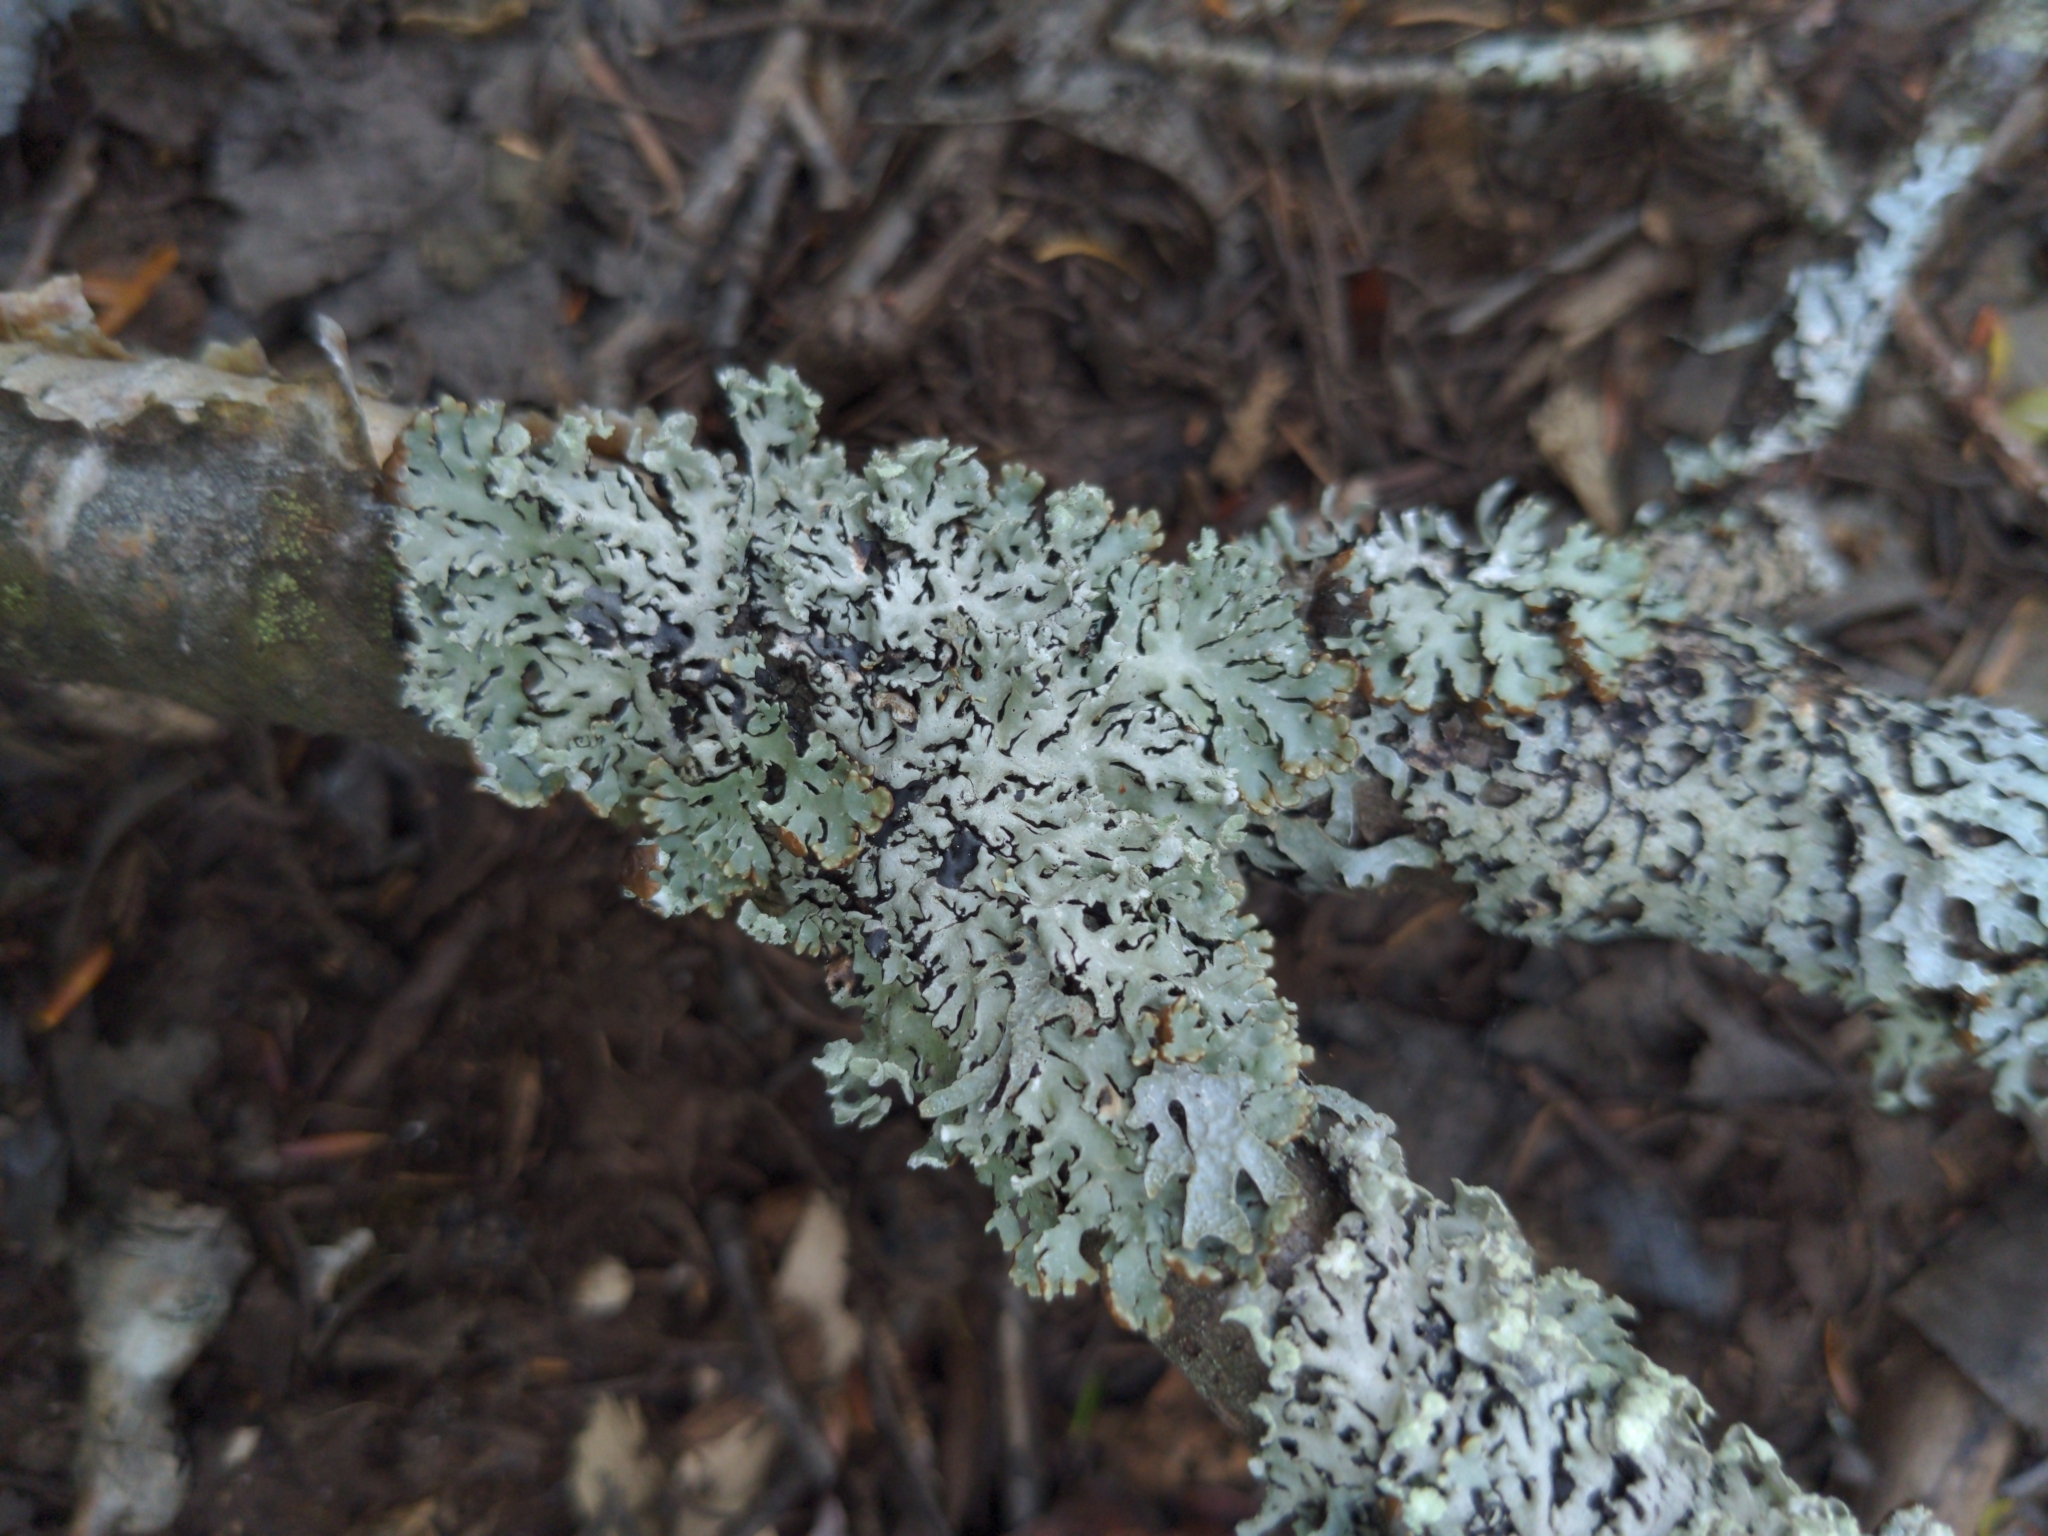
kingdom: Fungi
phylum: Ascomycota
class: Lecanoromycetes
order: Lecanorales
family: Parmeliaceae
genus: Hypogymnia
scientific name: Hypogymnia physodes
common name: Dark crottle
